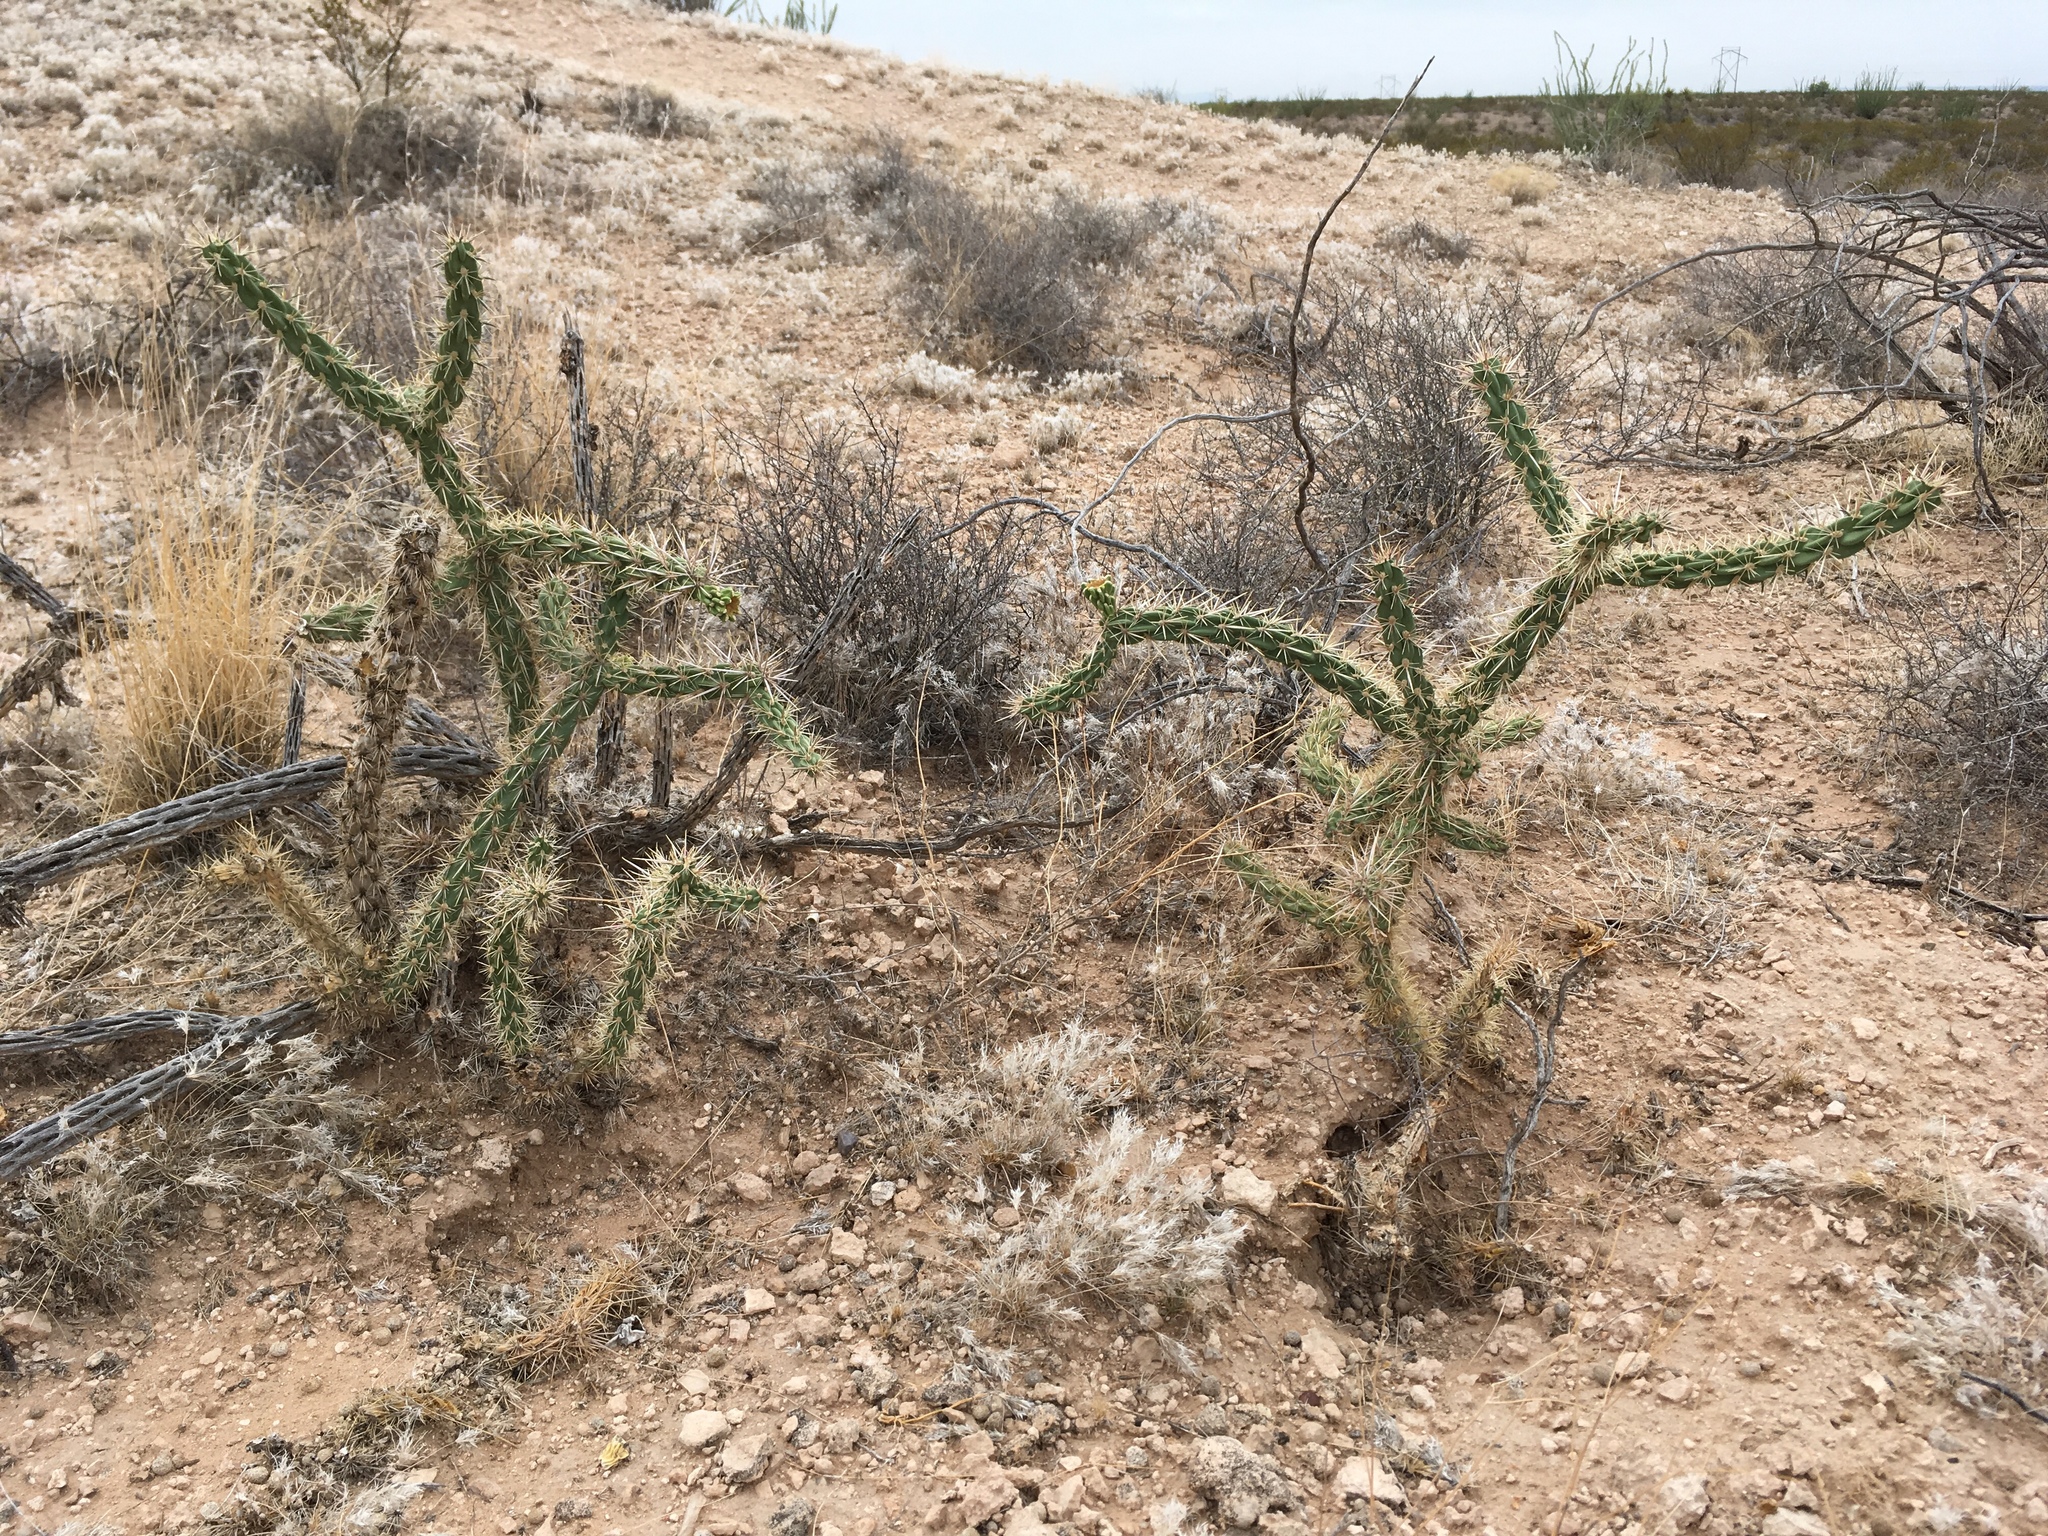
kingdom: Plantae
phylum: Tracheophyta
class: Magnoliopsida
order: Caryophyllales
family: Cactaceae
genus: Cylindropuntia
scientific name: Cylindropuntia imbricata
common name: Candelabrum cactus
